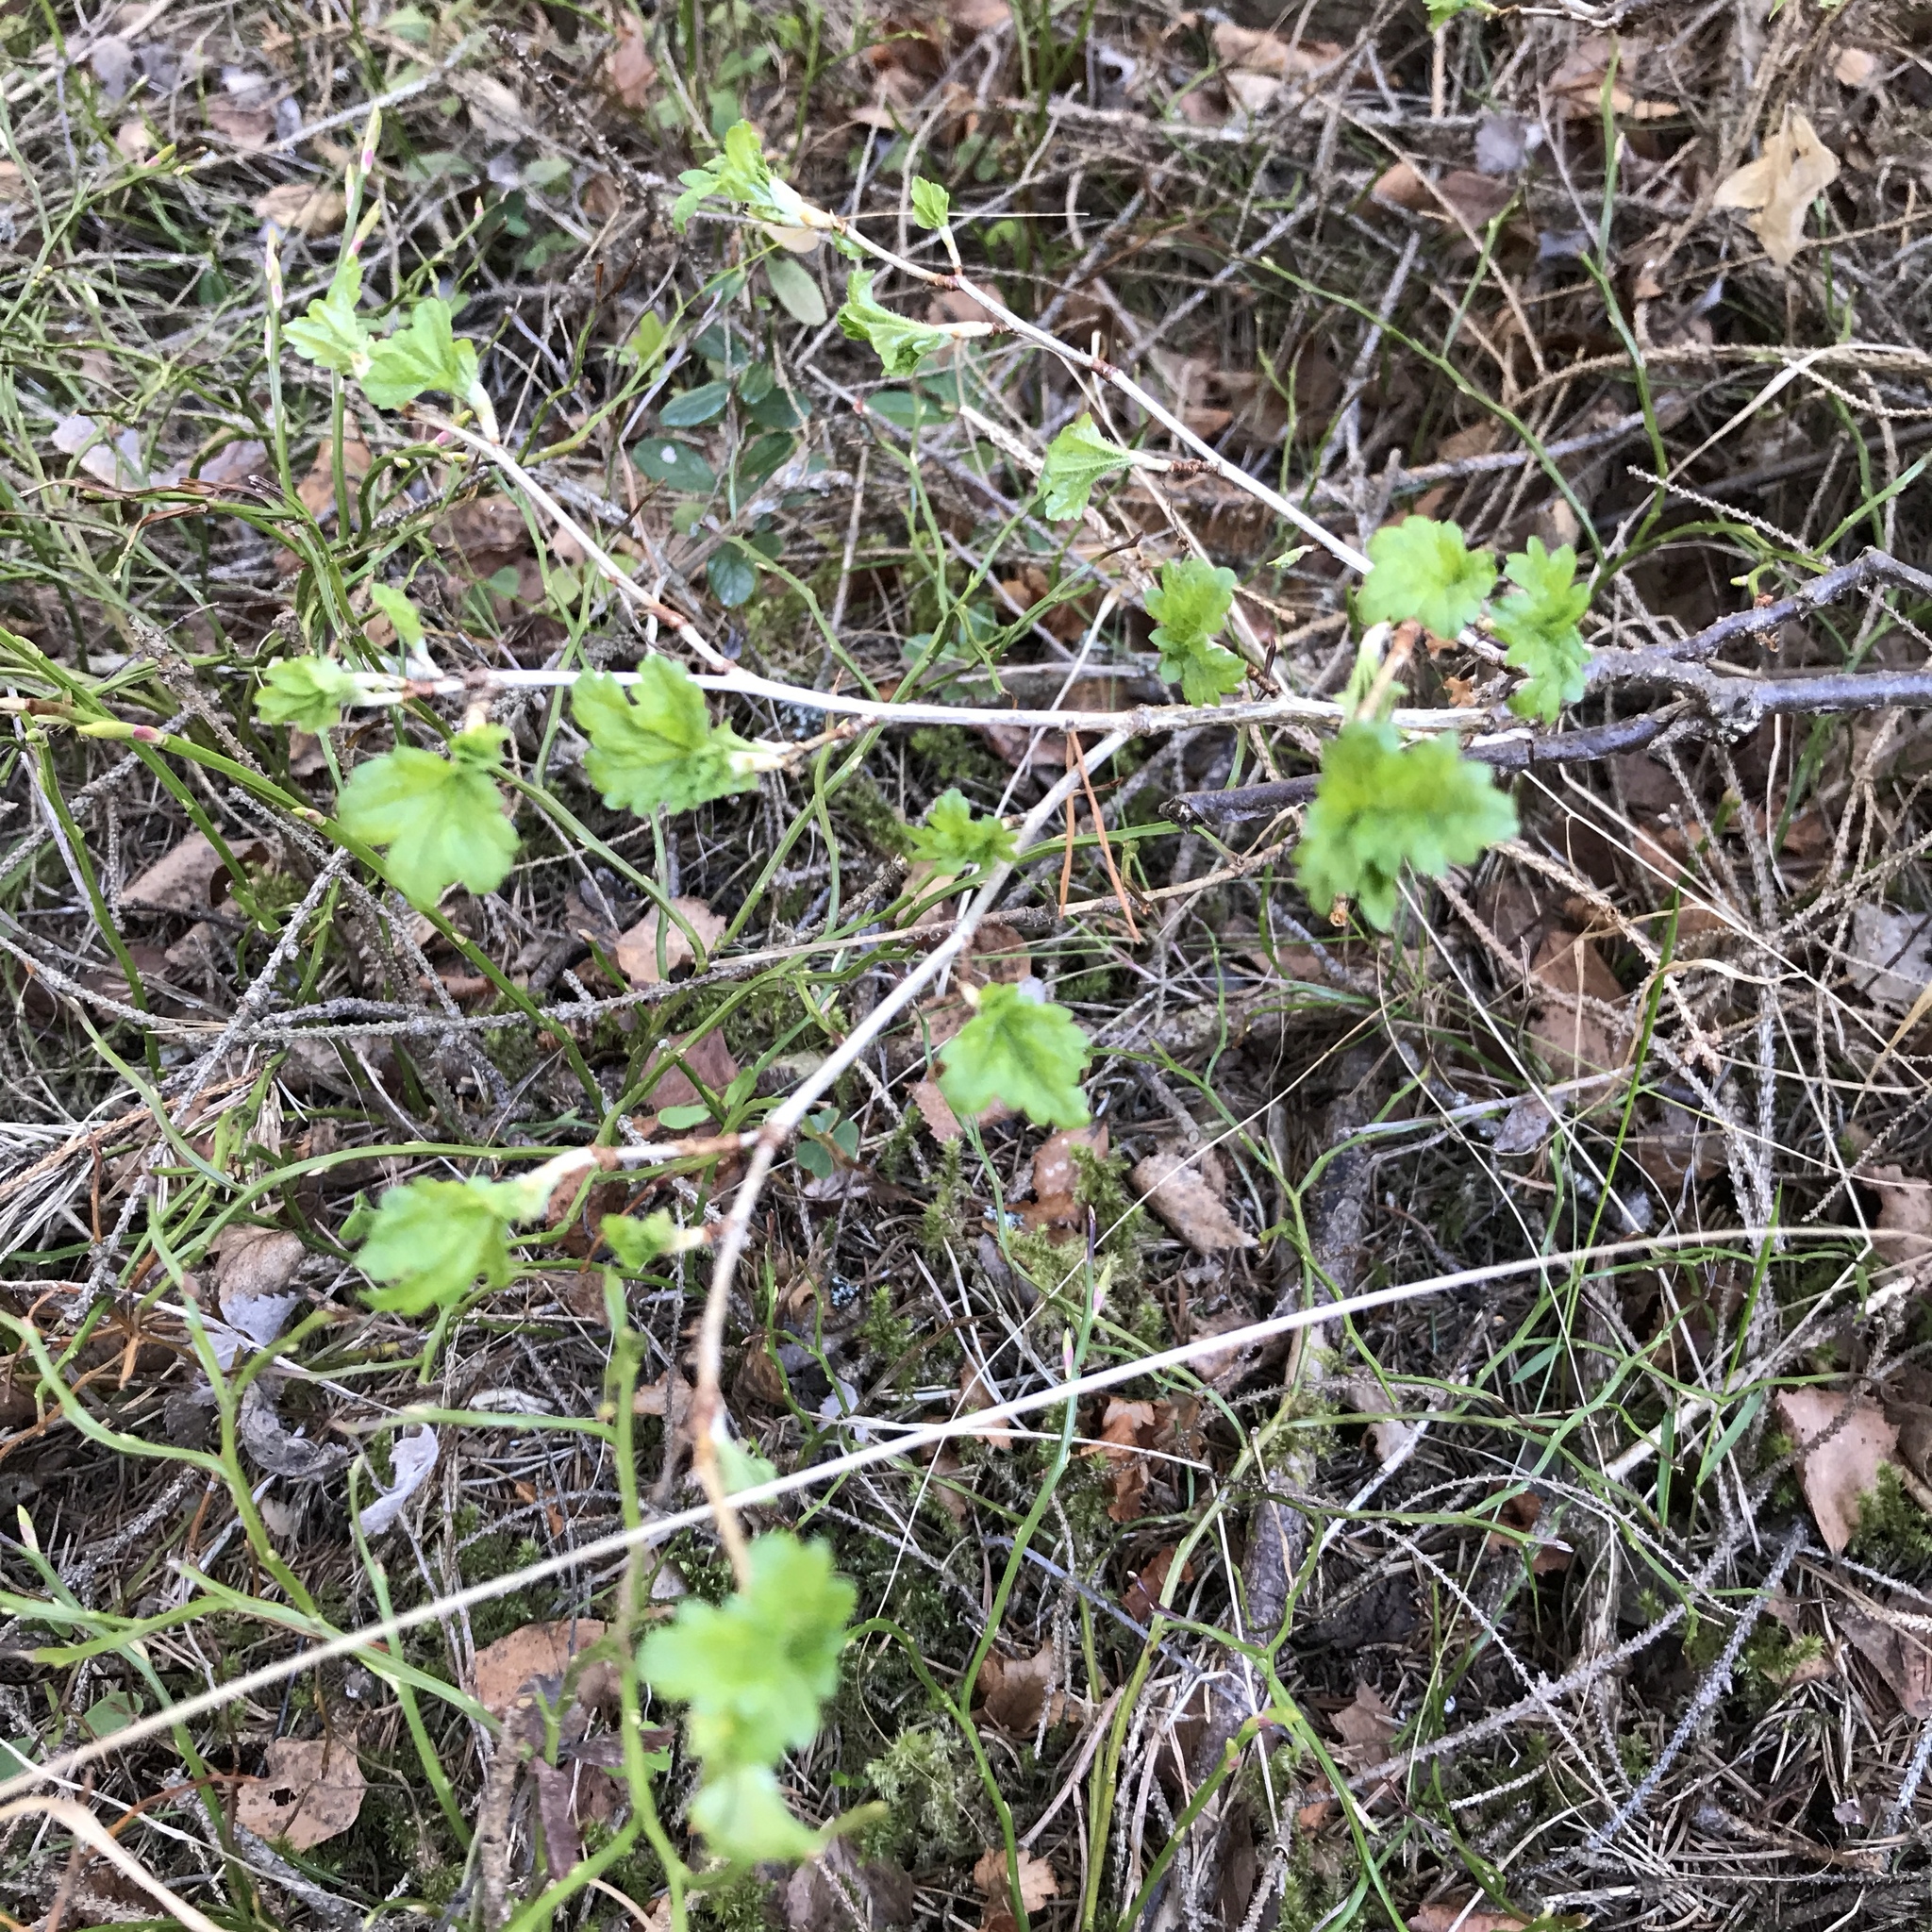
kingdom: Plantae
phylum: Tracheophyta
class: Magnoliopsida
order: Saxifragales
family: Grossulariaceae
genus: Ribes
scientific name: Ribes alpinum
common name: Alpine currant
